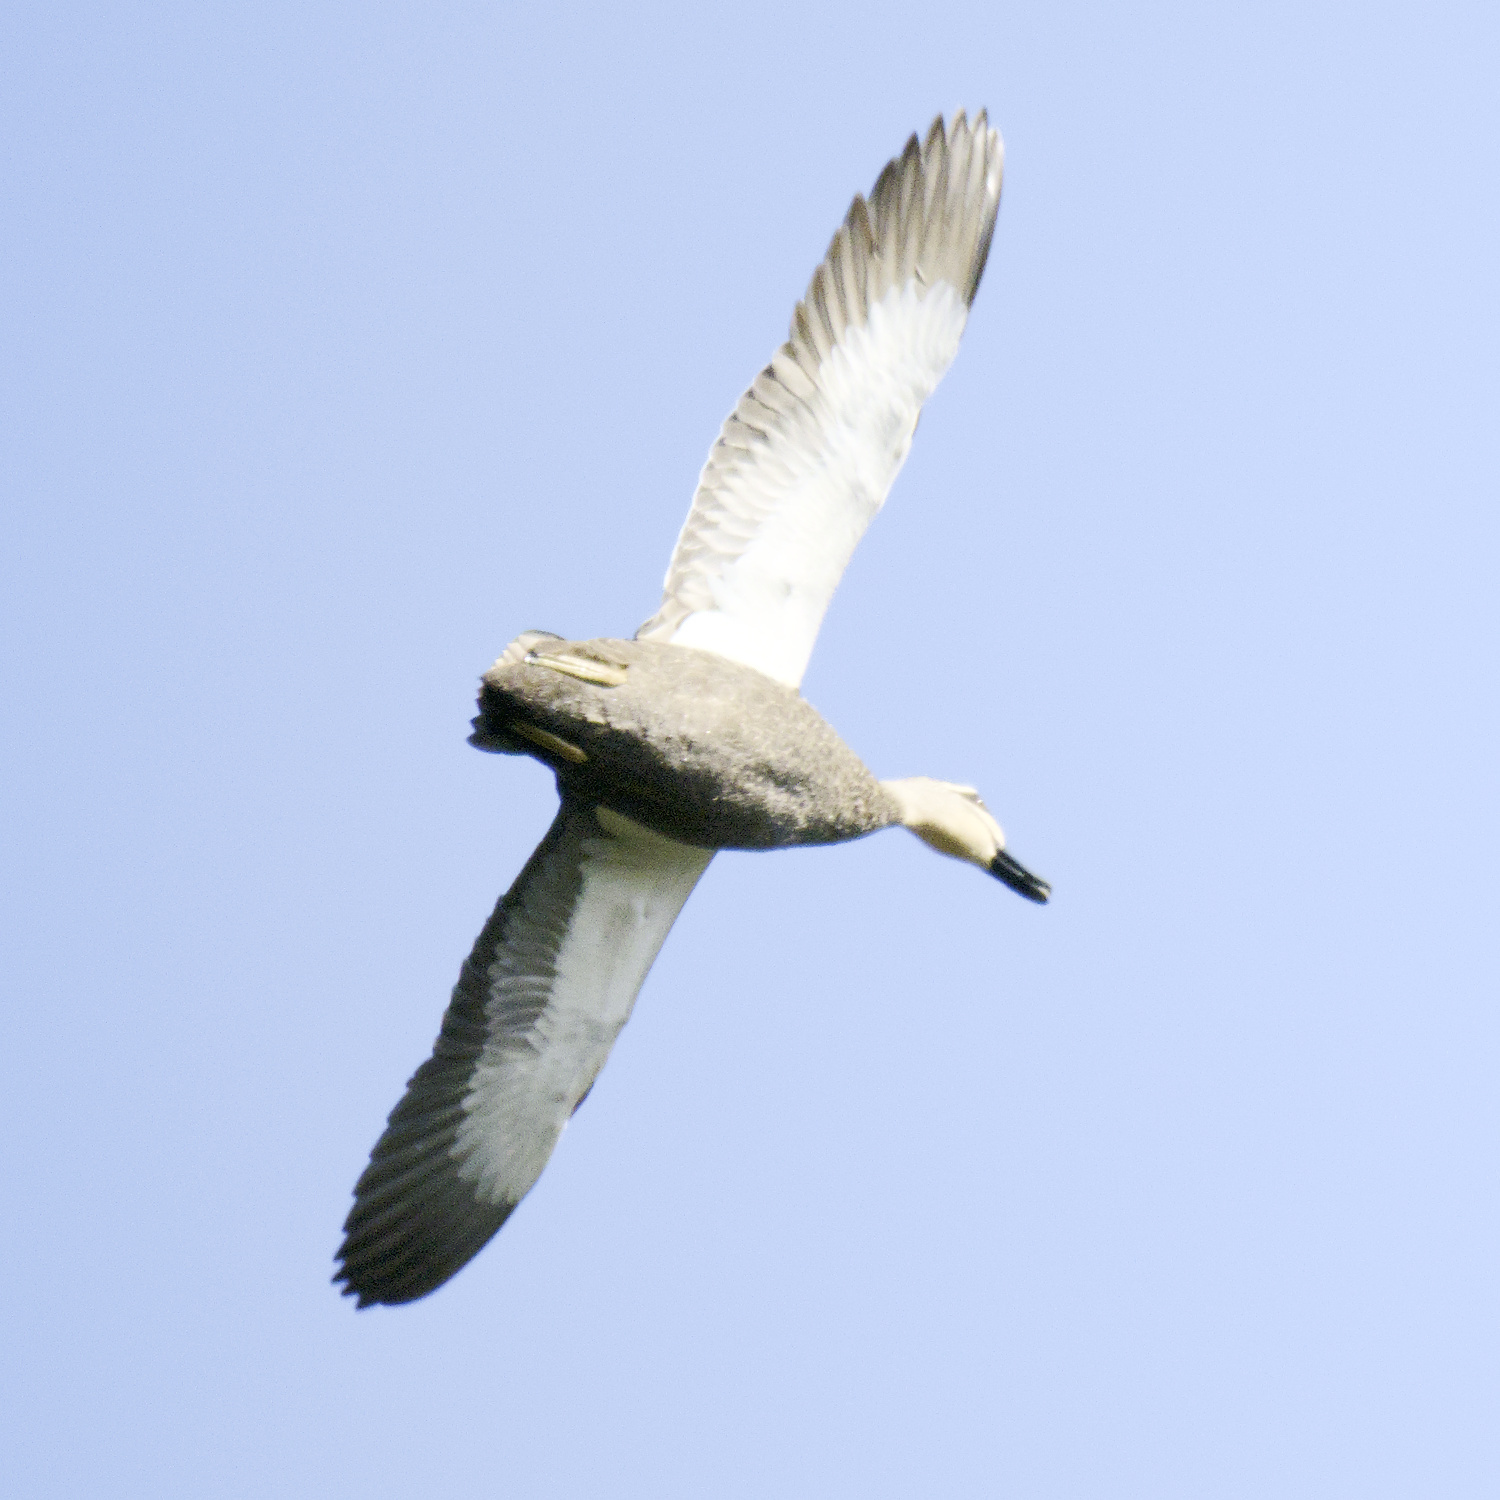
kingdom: Animalia
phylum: Chordata
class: Aves
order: Anseriformes
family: Anatidae
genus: Anas
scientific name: Anas superciliosa
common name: Pacific black duck
